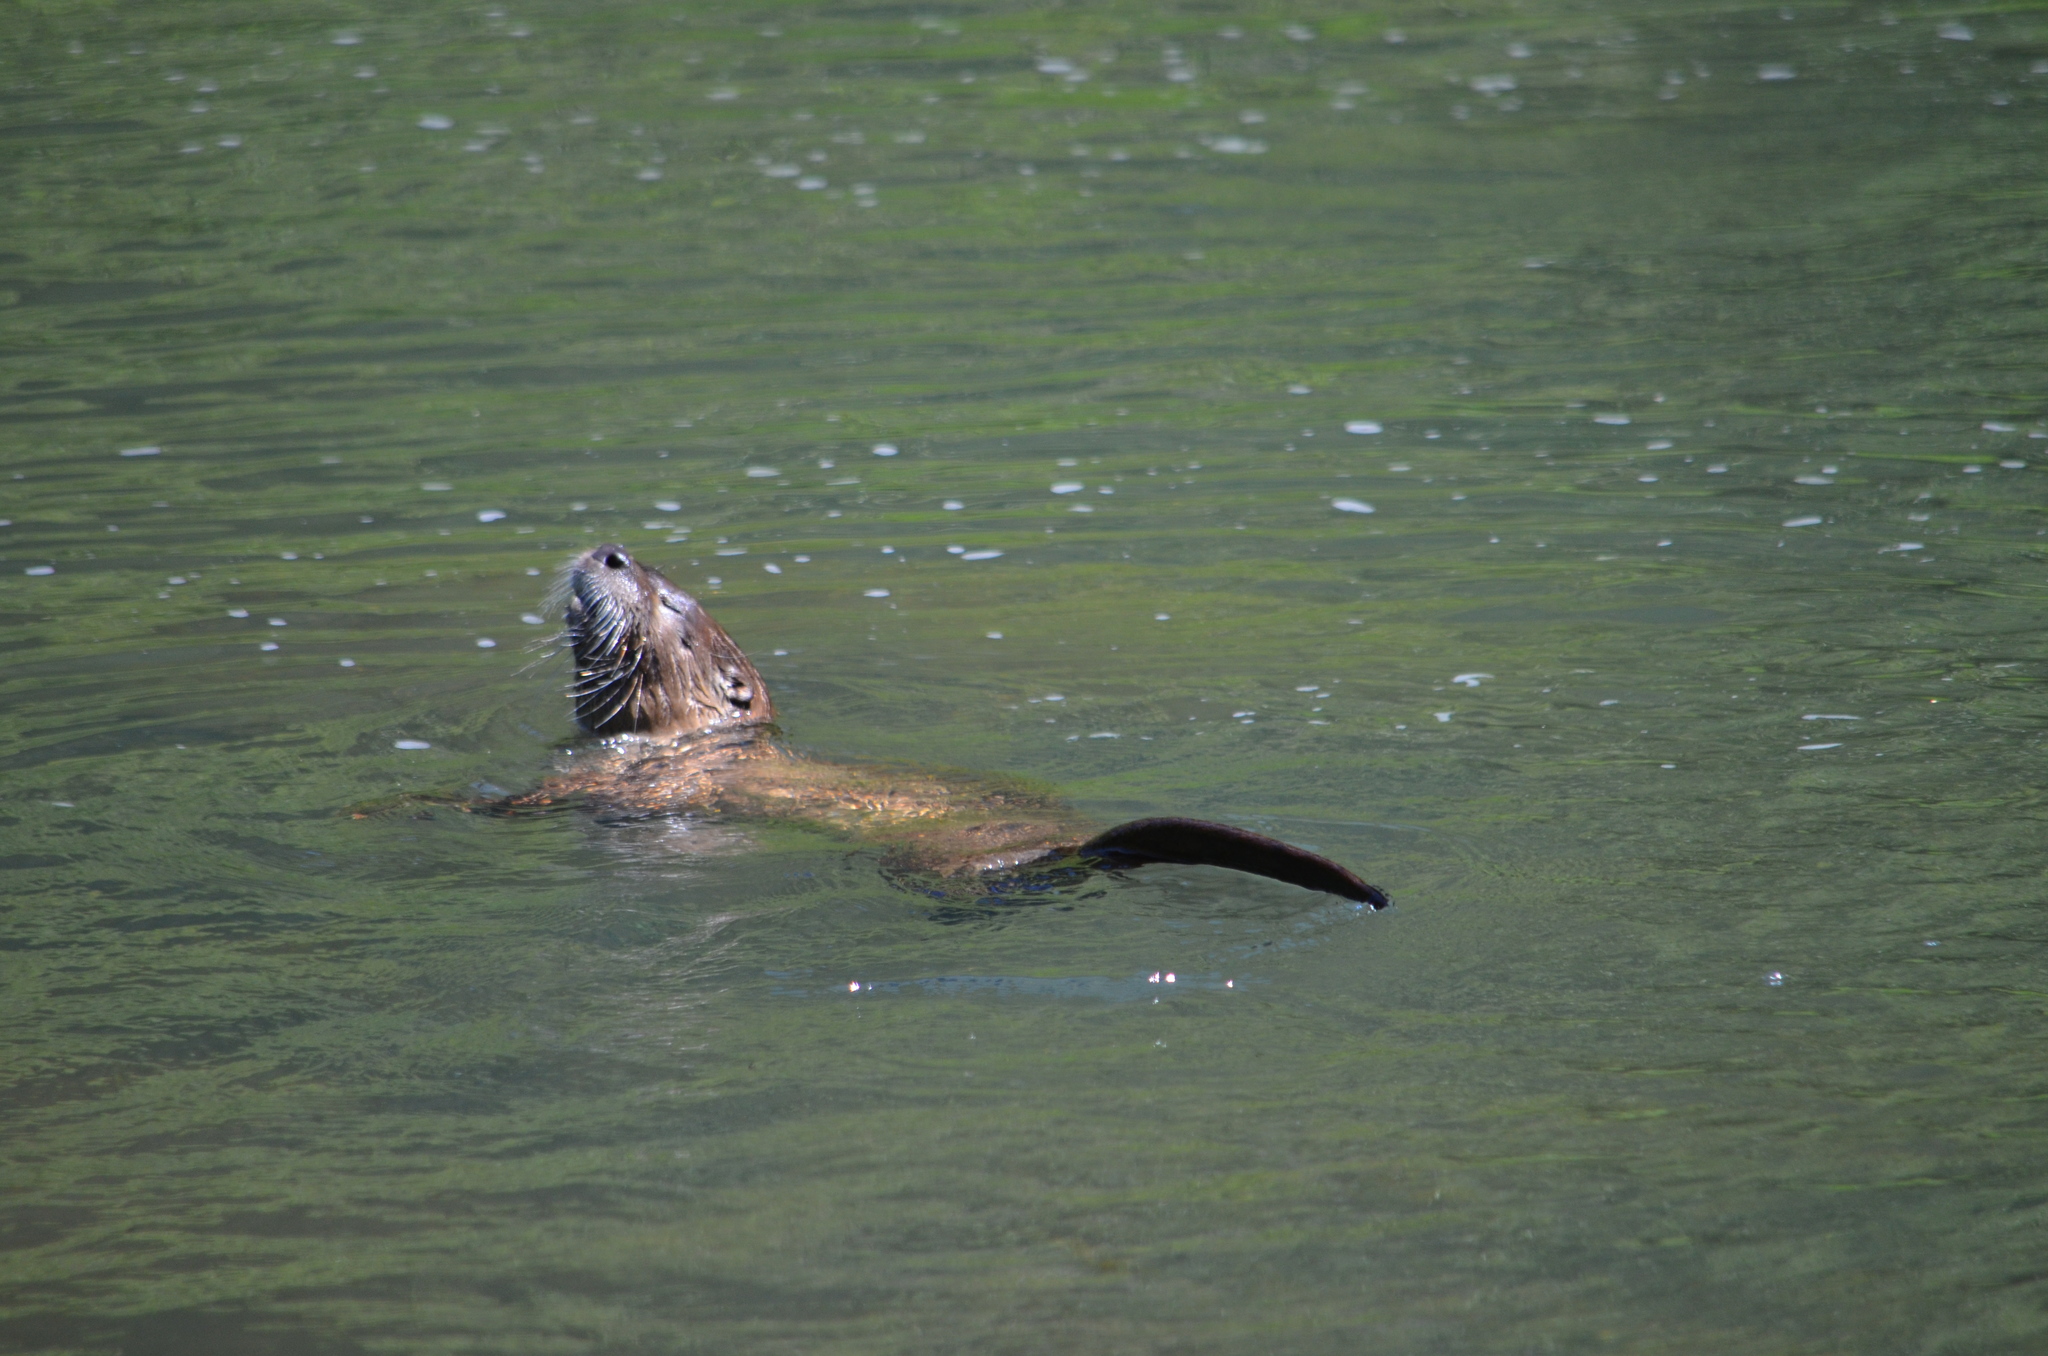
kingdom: Animalia
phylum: Chordata
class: Mammalia
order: Carnivora
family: Mustelidae
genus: Lontra
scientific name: Lontra canadensis
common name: North american river otter
